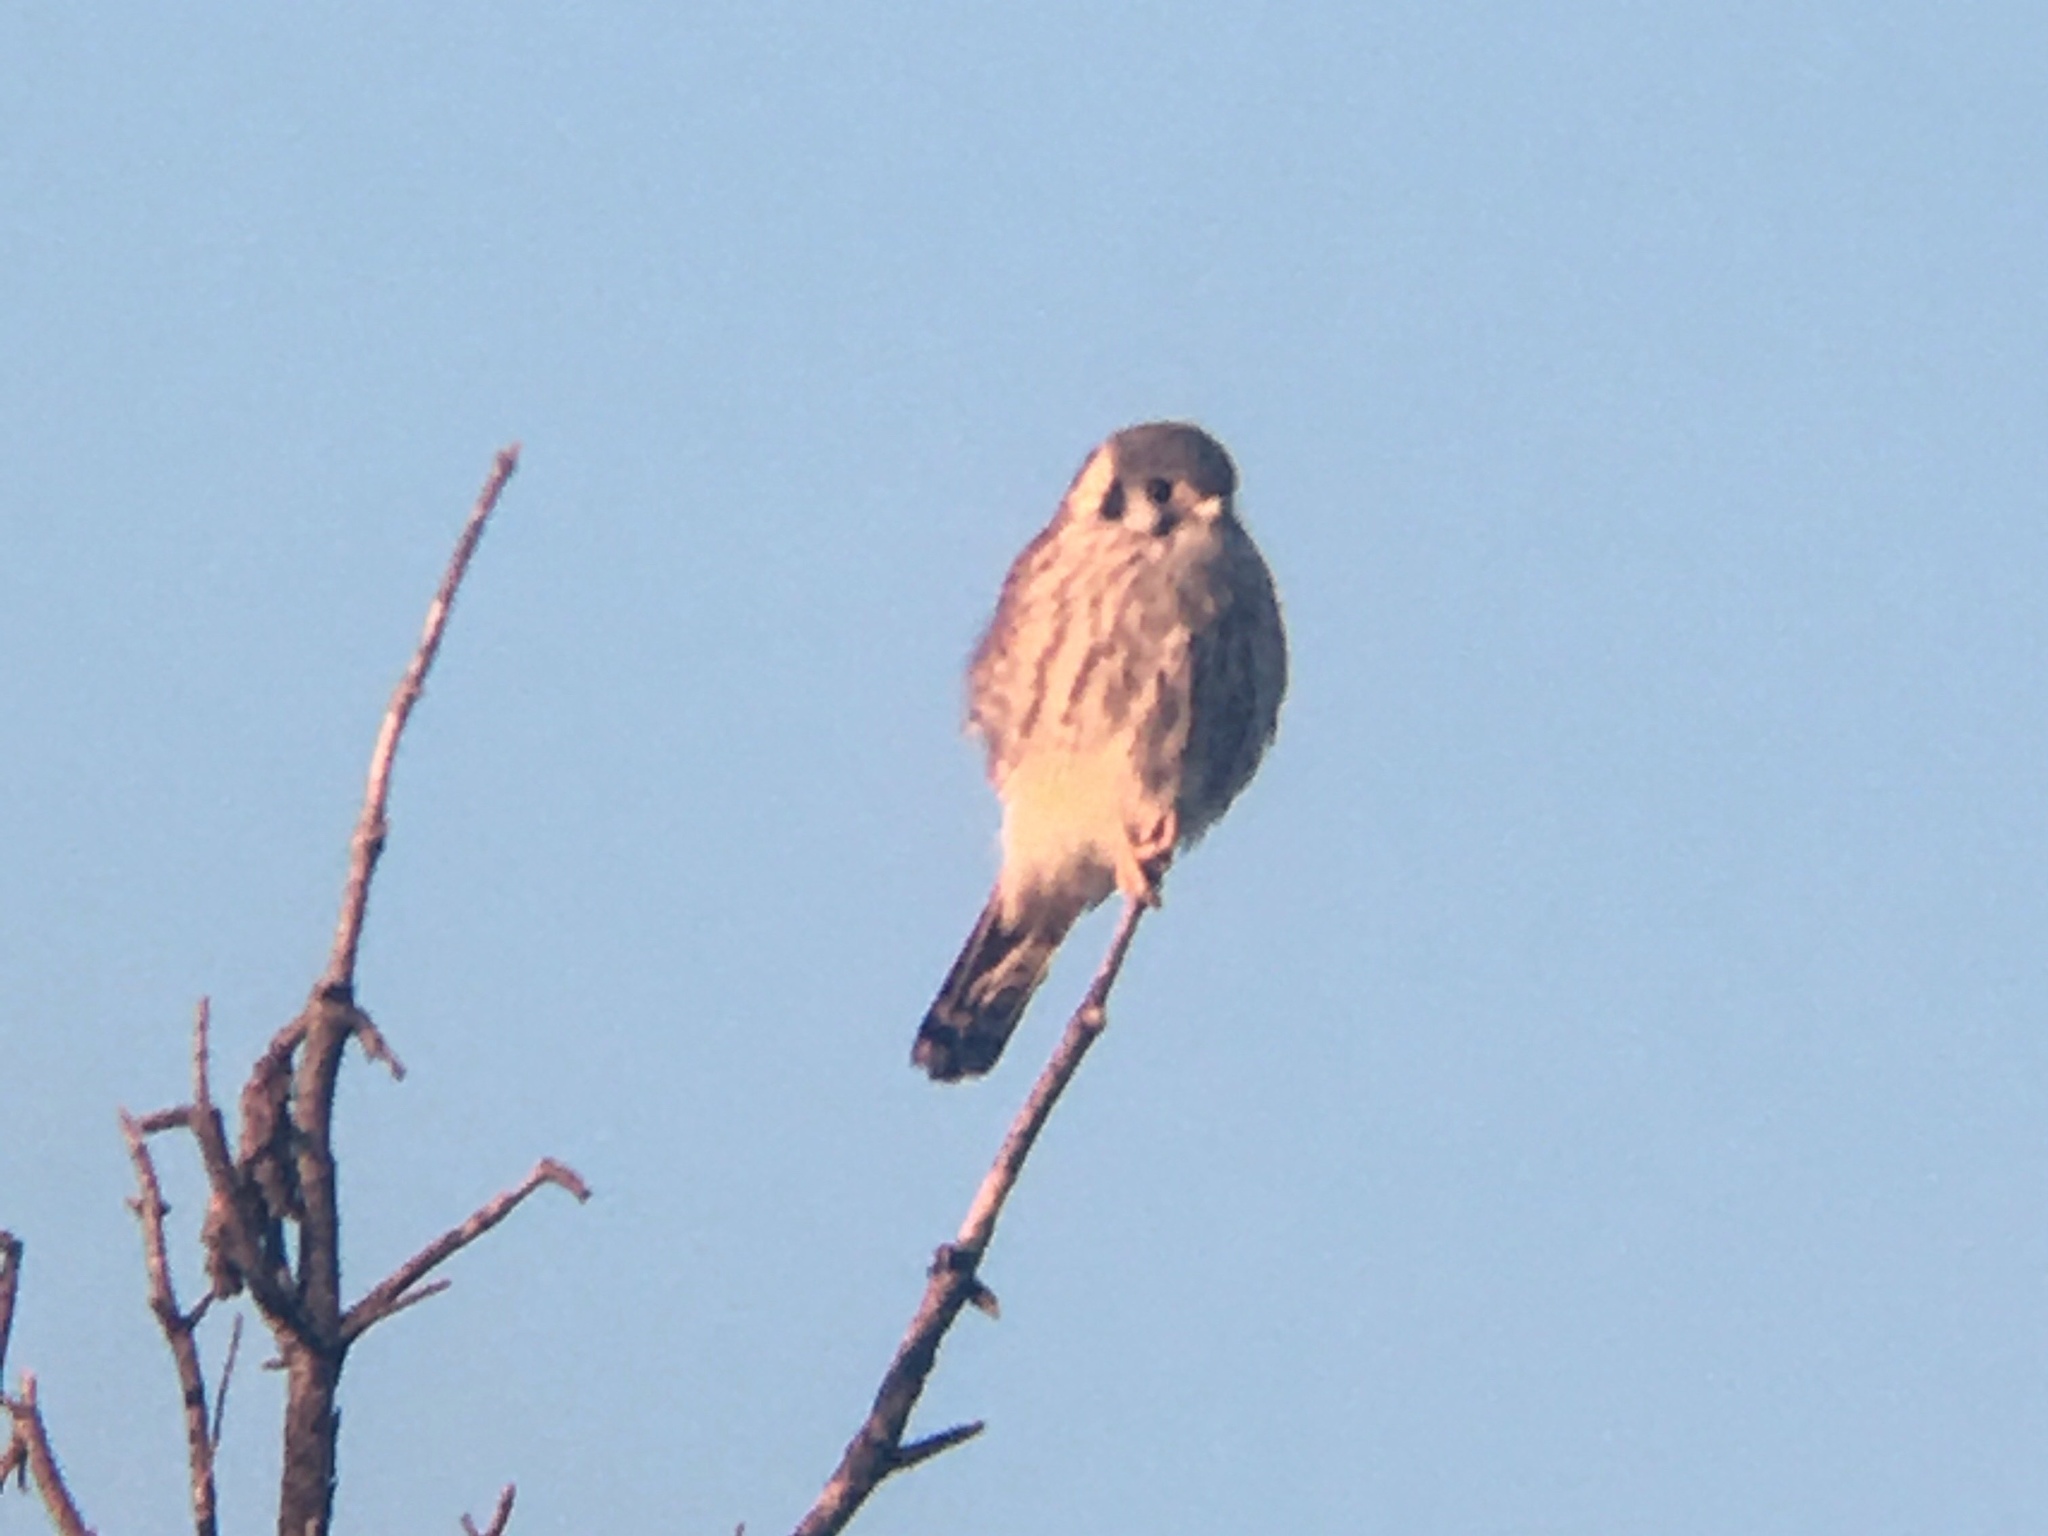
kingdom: Animalia
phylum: Chordata
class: Aves
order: Falconiformes
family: Falconidae
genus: Falco
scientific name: Falco sparverius
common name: American kestrel
